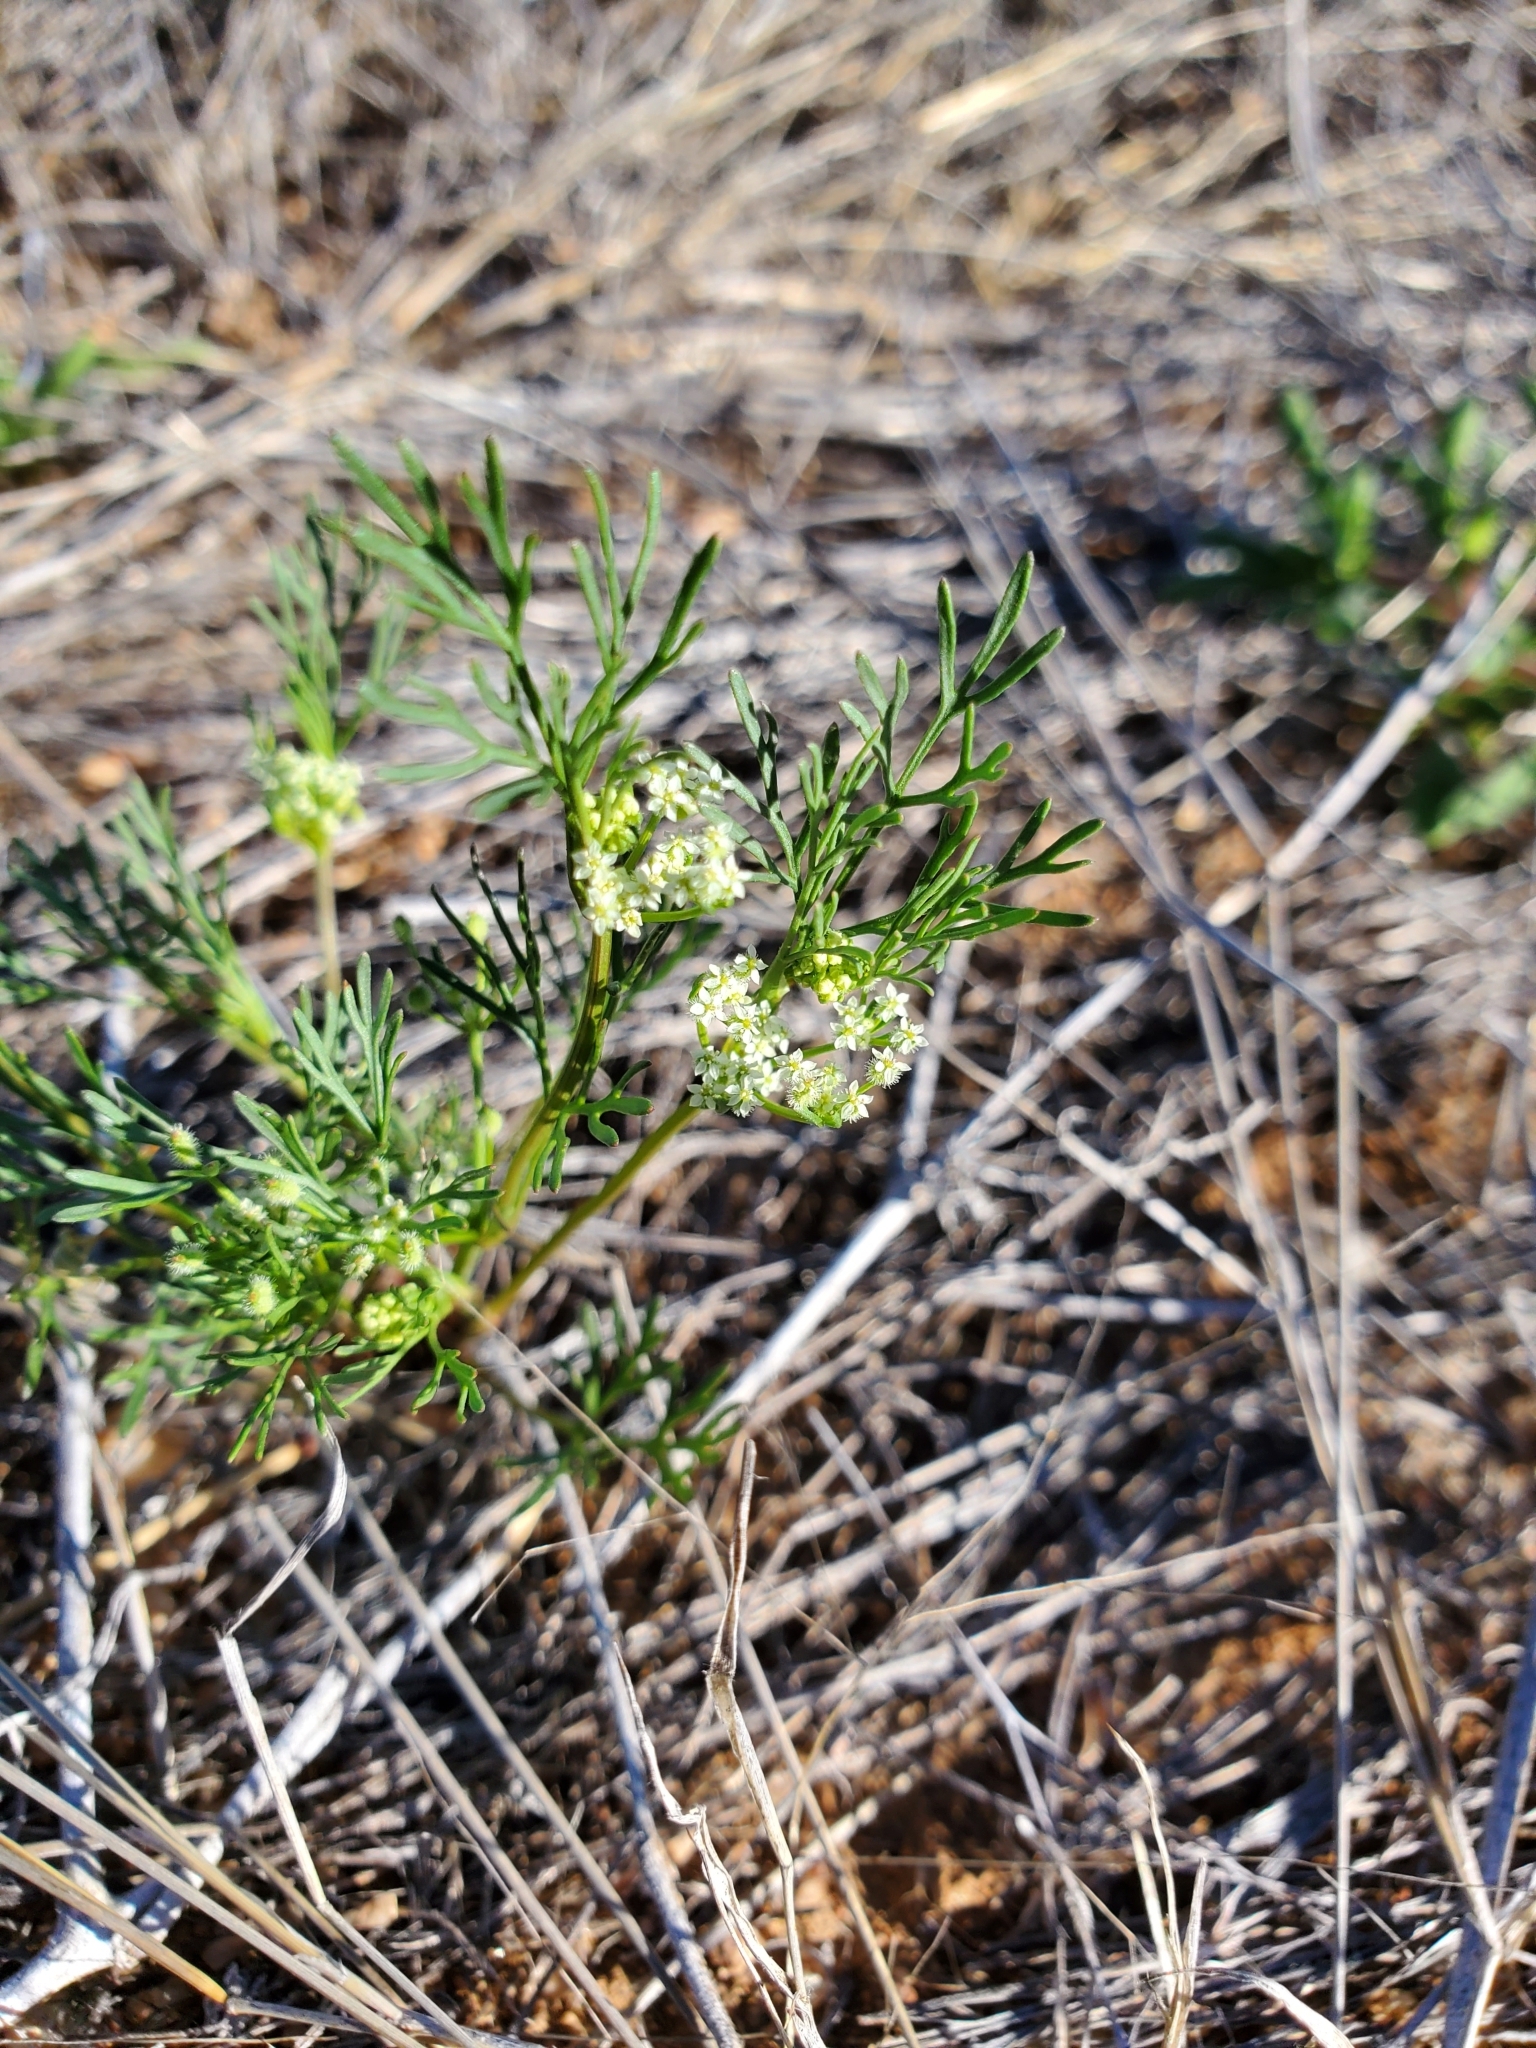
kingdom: Plantae
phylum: Tracheophyta
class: Magnoliopsida
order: Apiales
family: Apiaceae
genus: Spermolepis
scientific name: Spermolepis lateriflora
